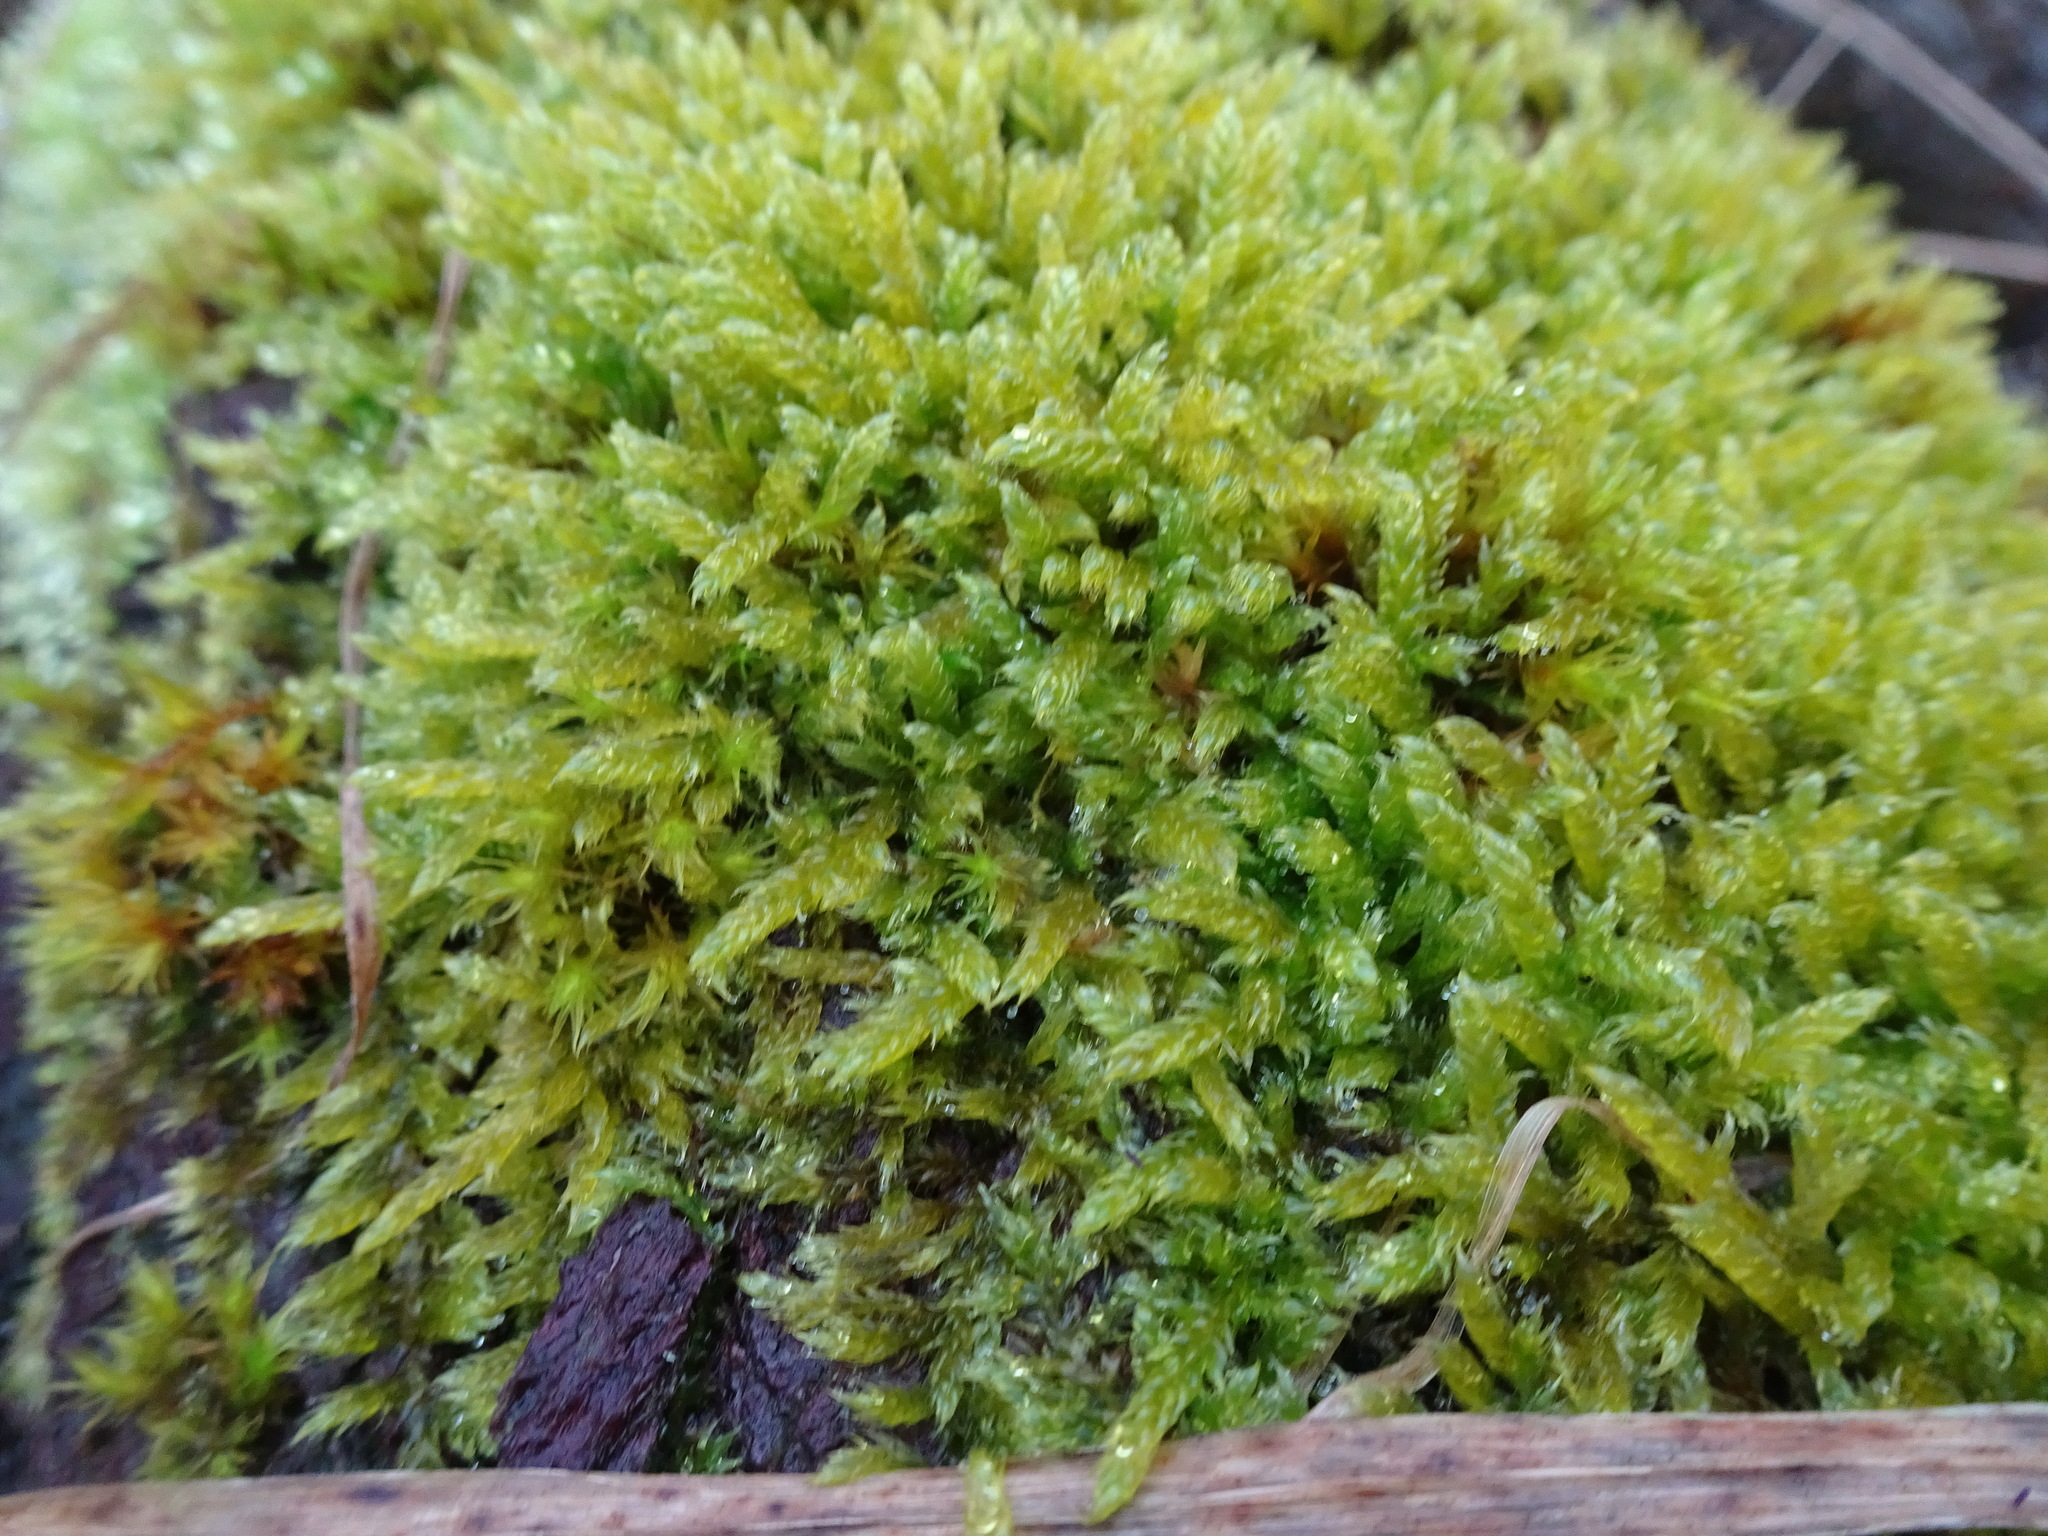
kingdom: Plantae
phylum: Bryophyta
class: Bryopsida
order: Hypnales
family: Hypnaceae
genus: Hypnum
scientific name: Hypnum cupressiforme
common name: Cypress-leaved plait-moss
